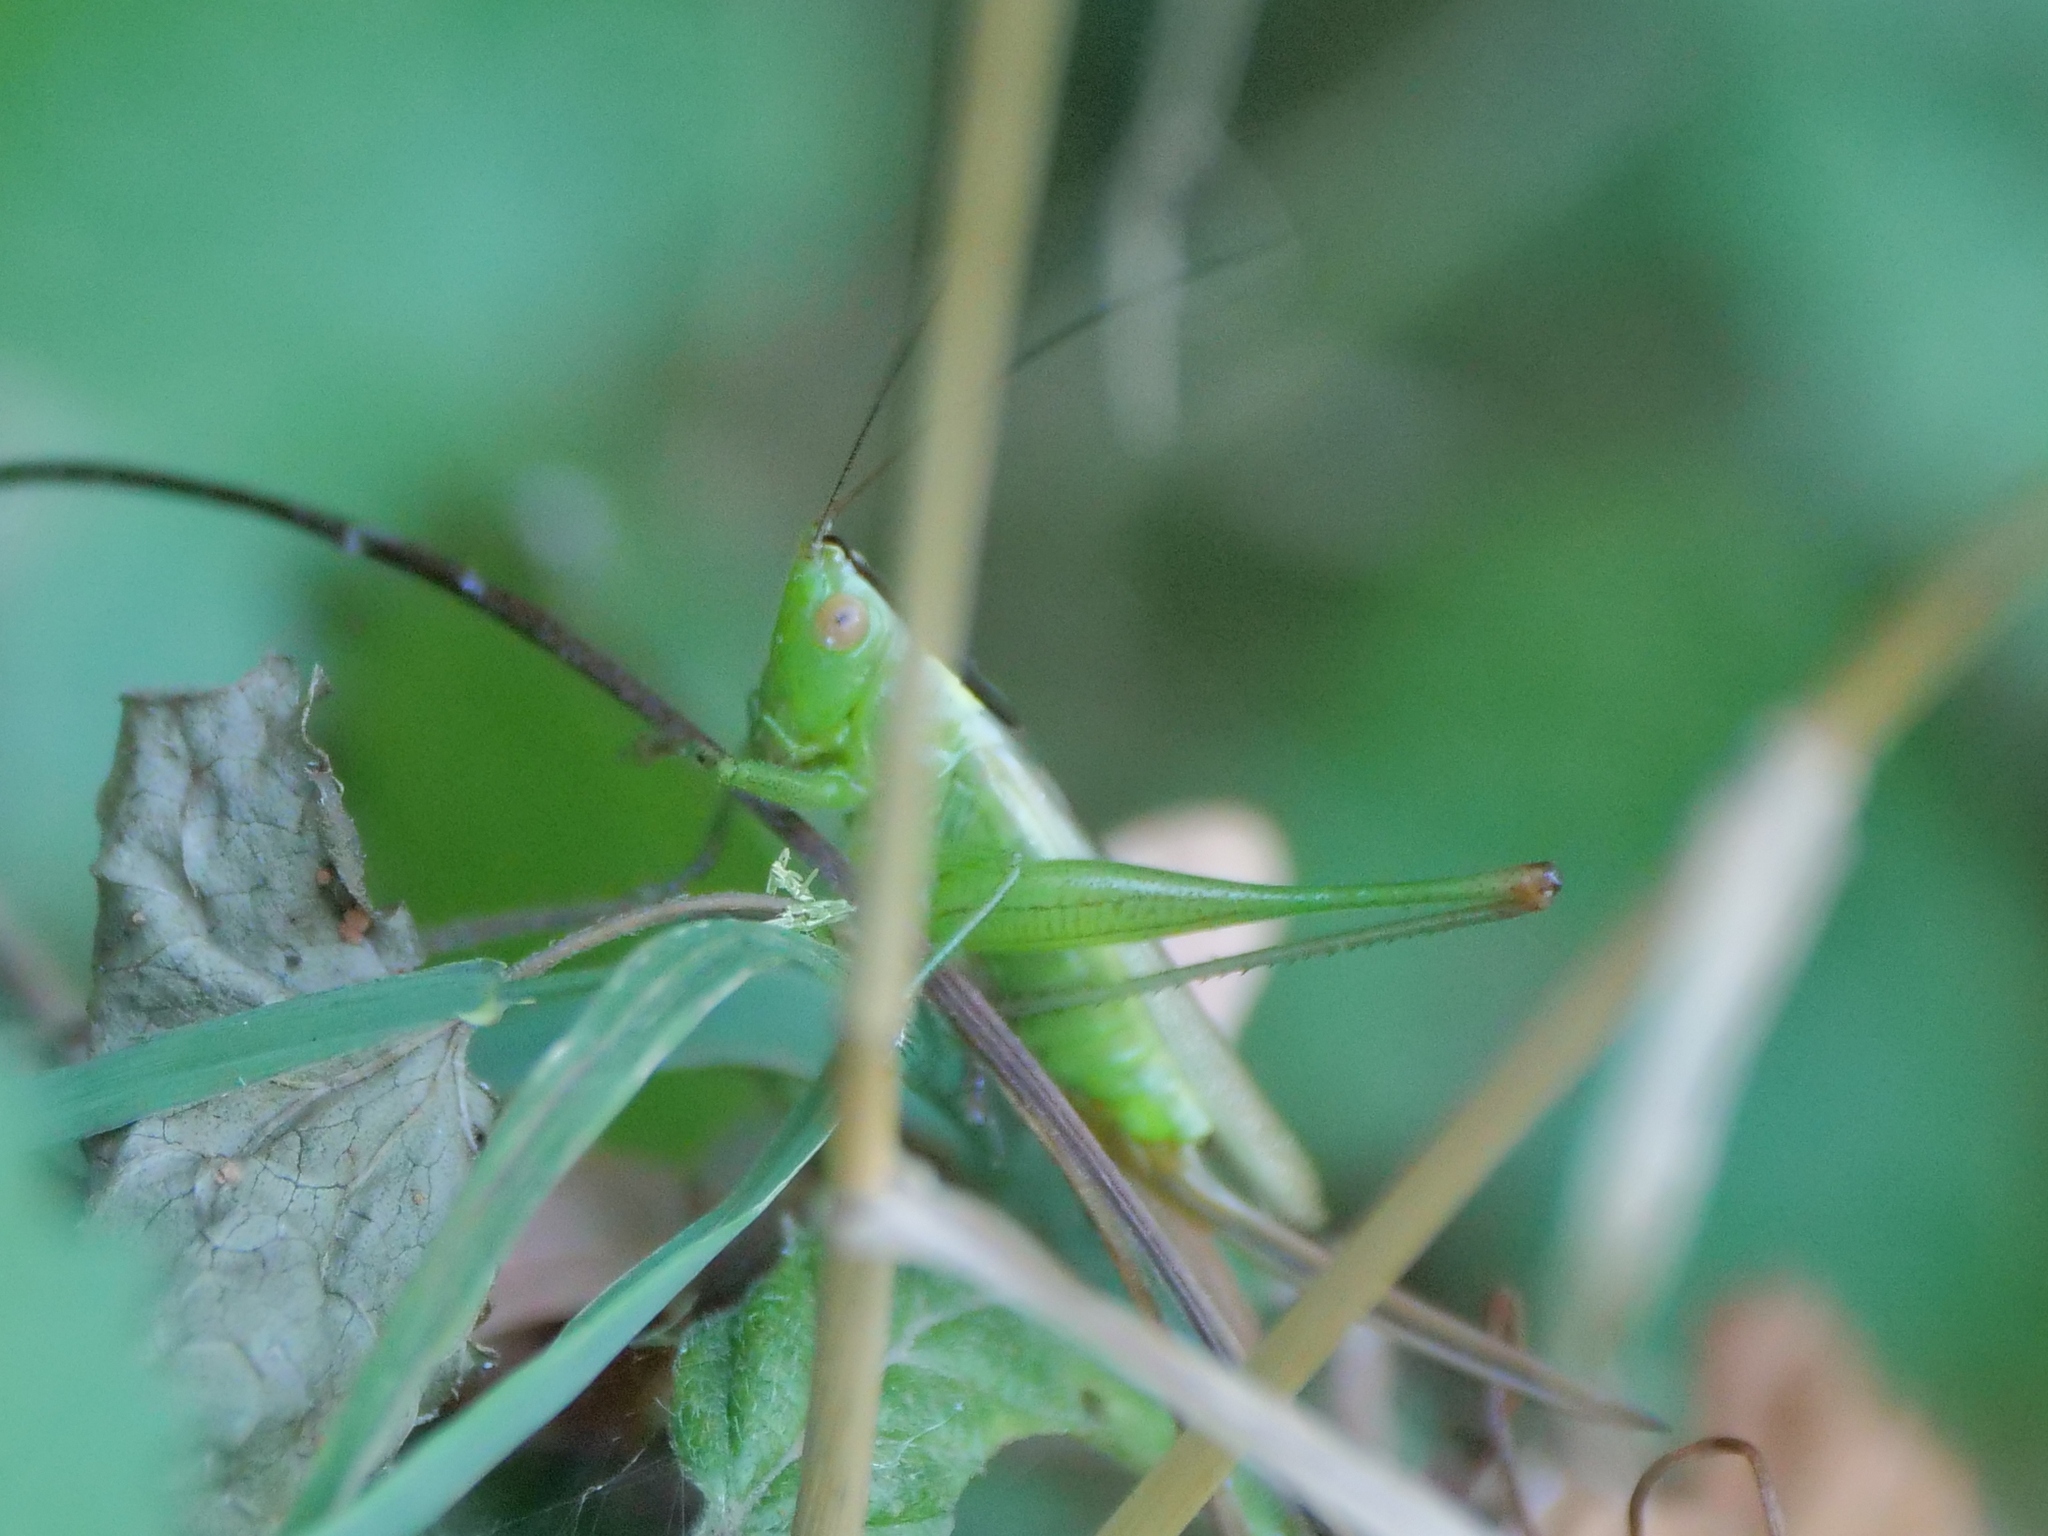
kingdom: Animalia
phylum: Arthropoda
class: Insecta
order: Orthoptera
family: Tettigoniidae
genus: Conocephalus
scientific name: Conocephalus fuscus
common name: Long-winged conehead
